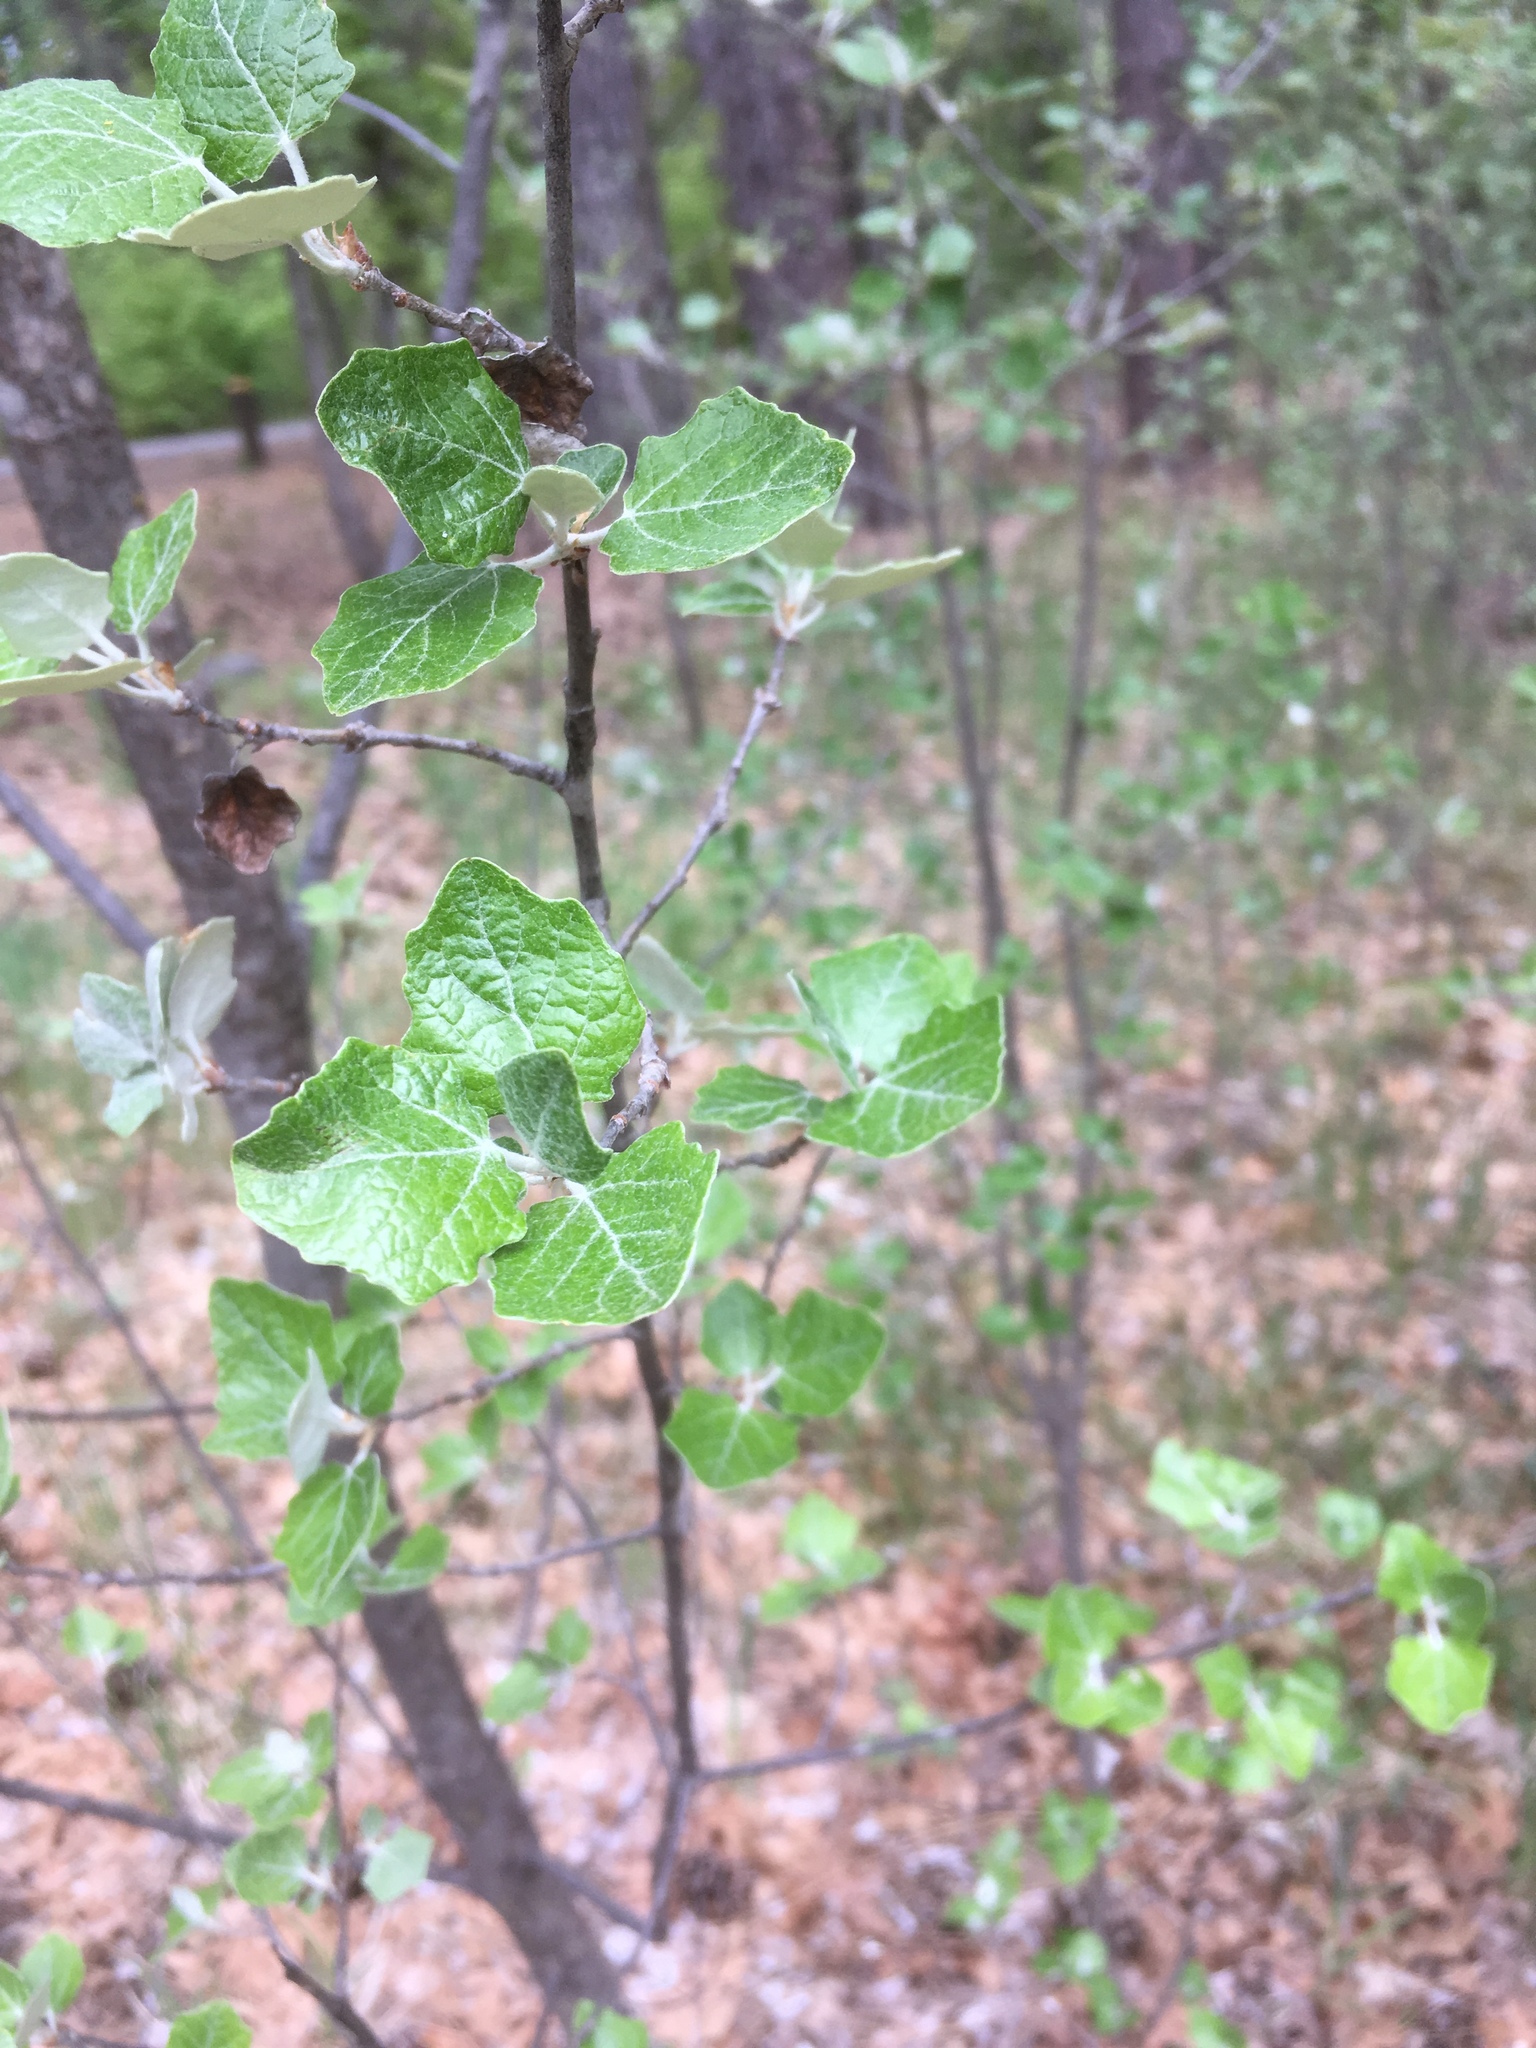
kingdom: Plantae
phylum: Tracheophyta
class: Magnoliopsida
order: Malpighiales
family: Salicaceae
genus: Populus
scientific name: Populus alba
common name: White poplar
